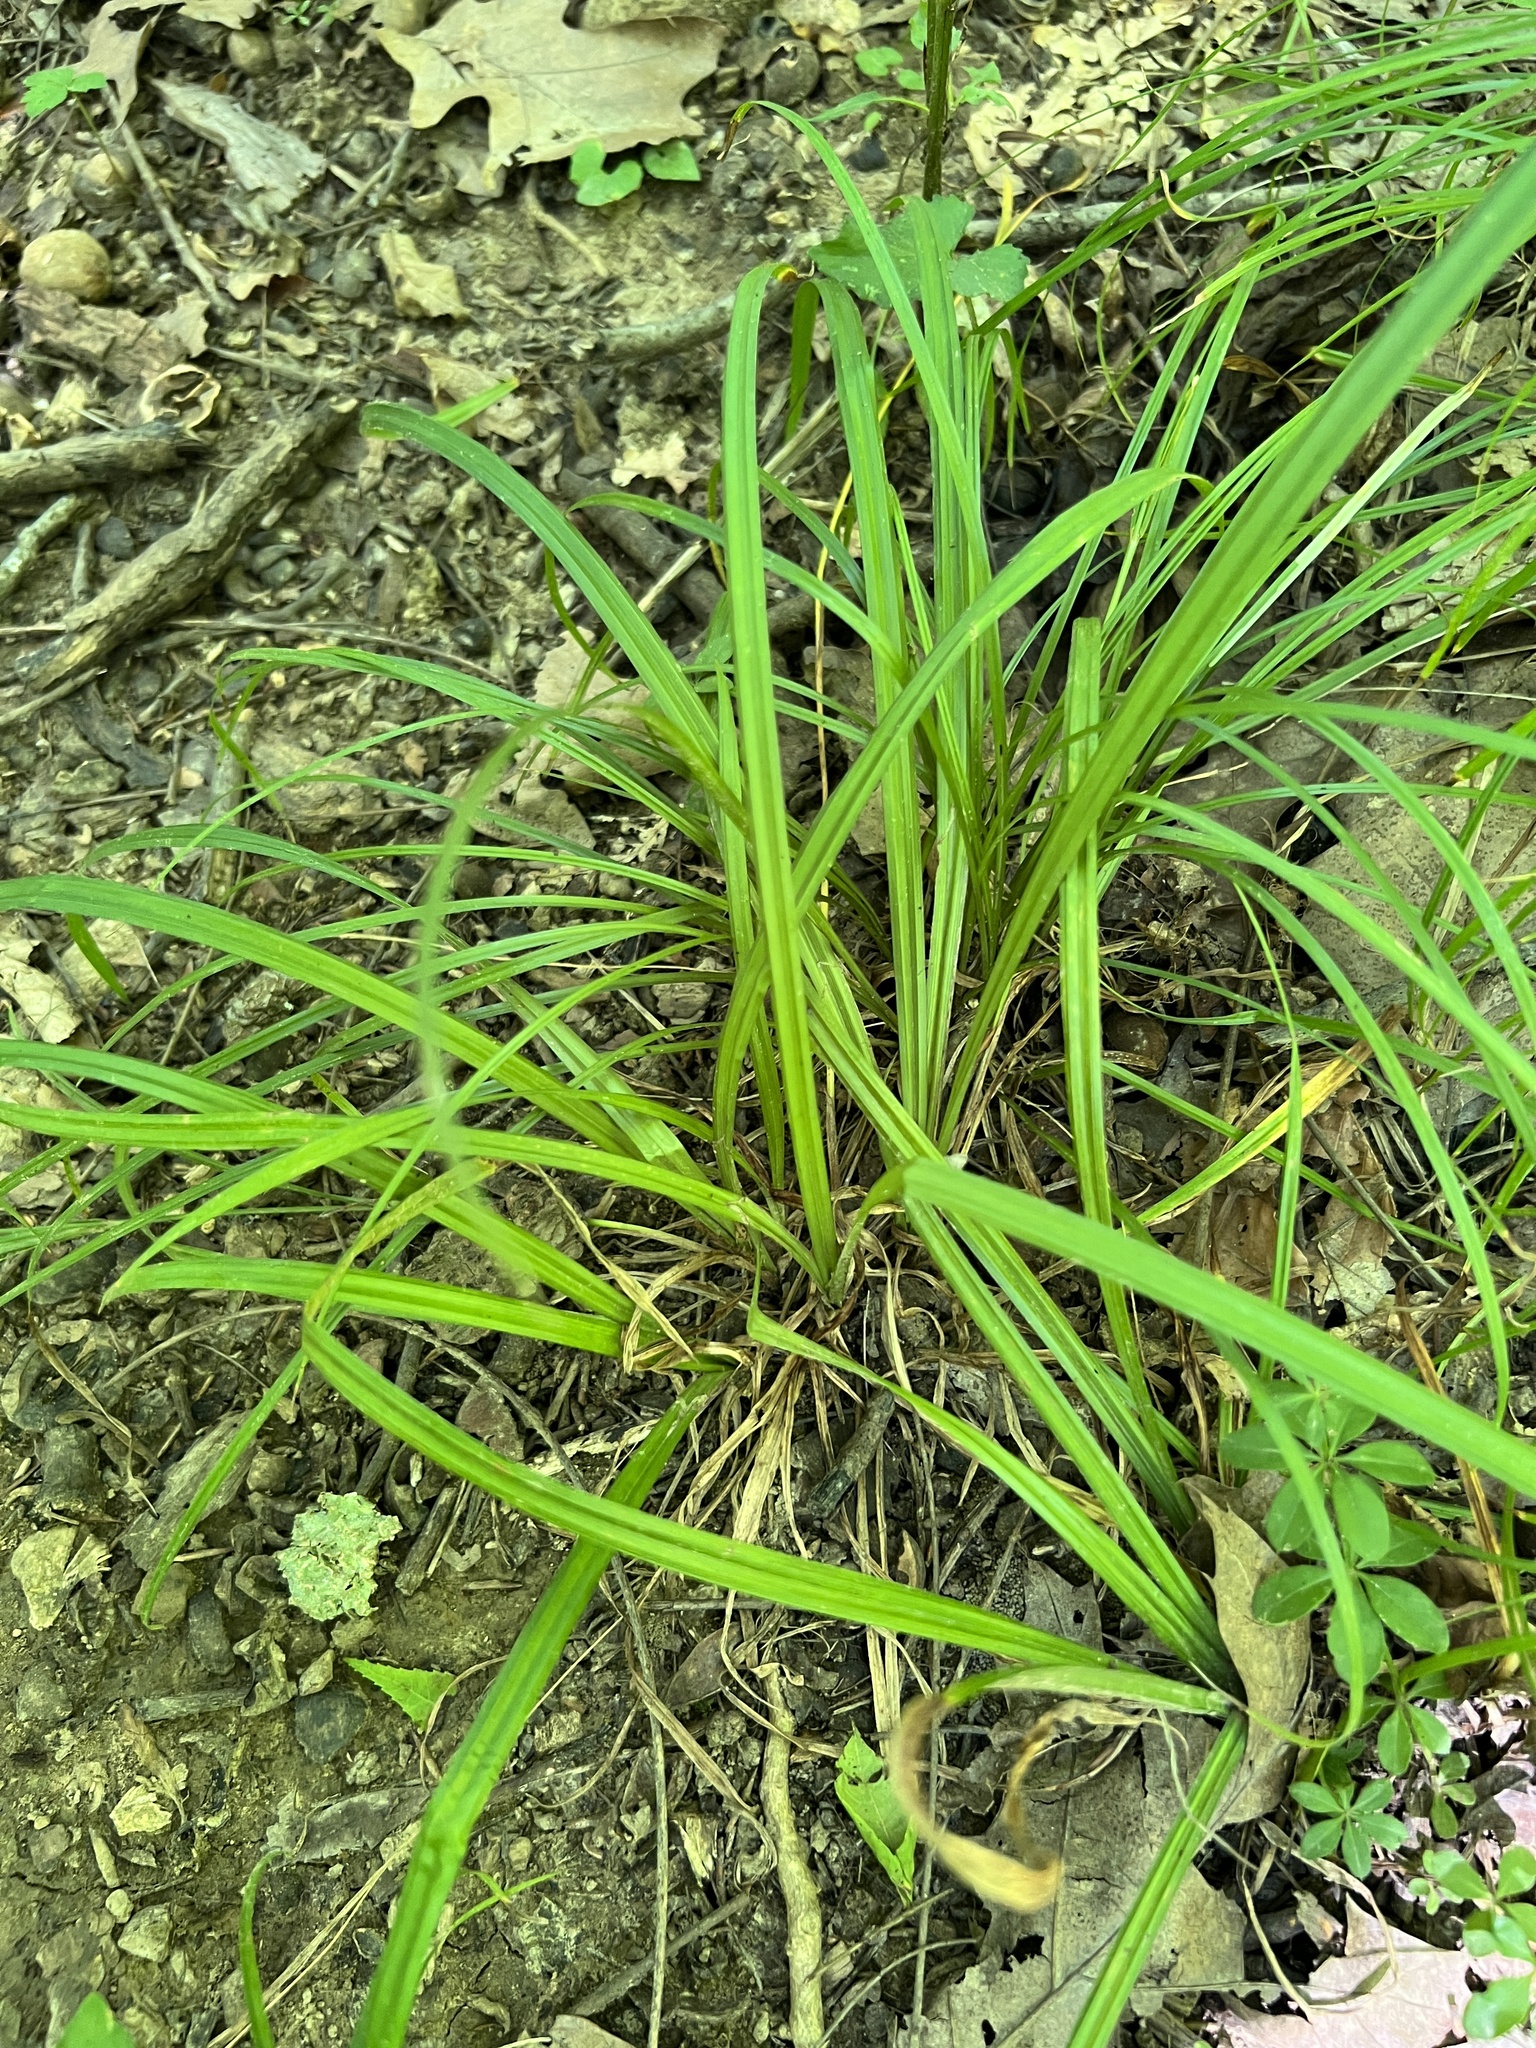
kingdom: Plantae
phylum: Tracheophyta
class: Liliopsida
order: Poales
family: Cyperaceae
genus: Carex
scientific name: Carex
